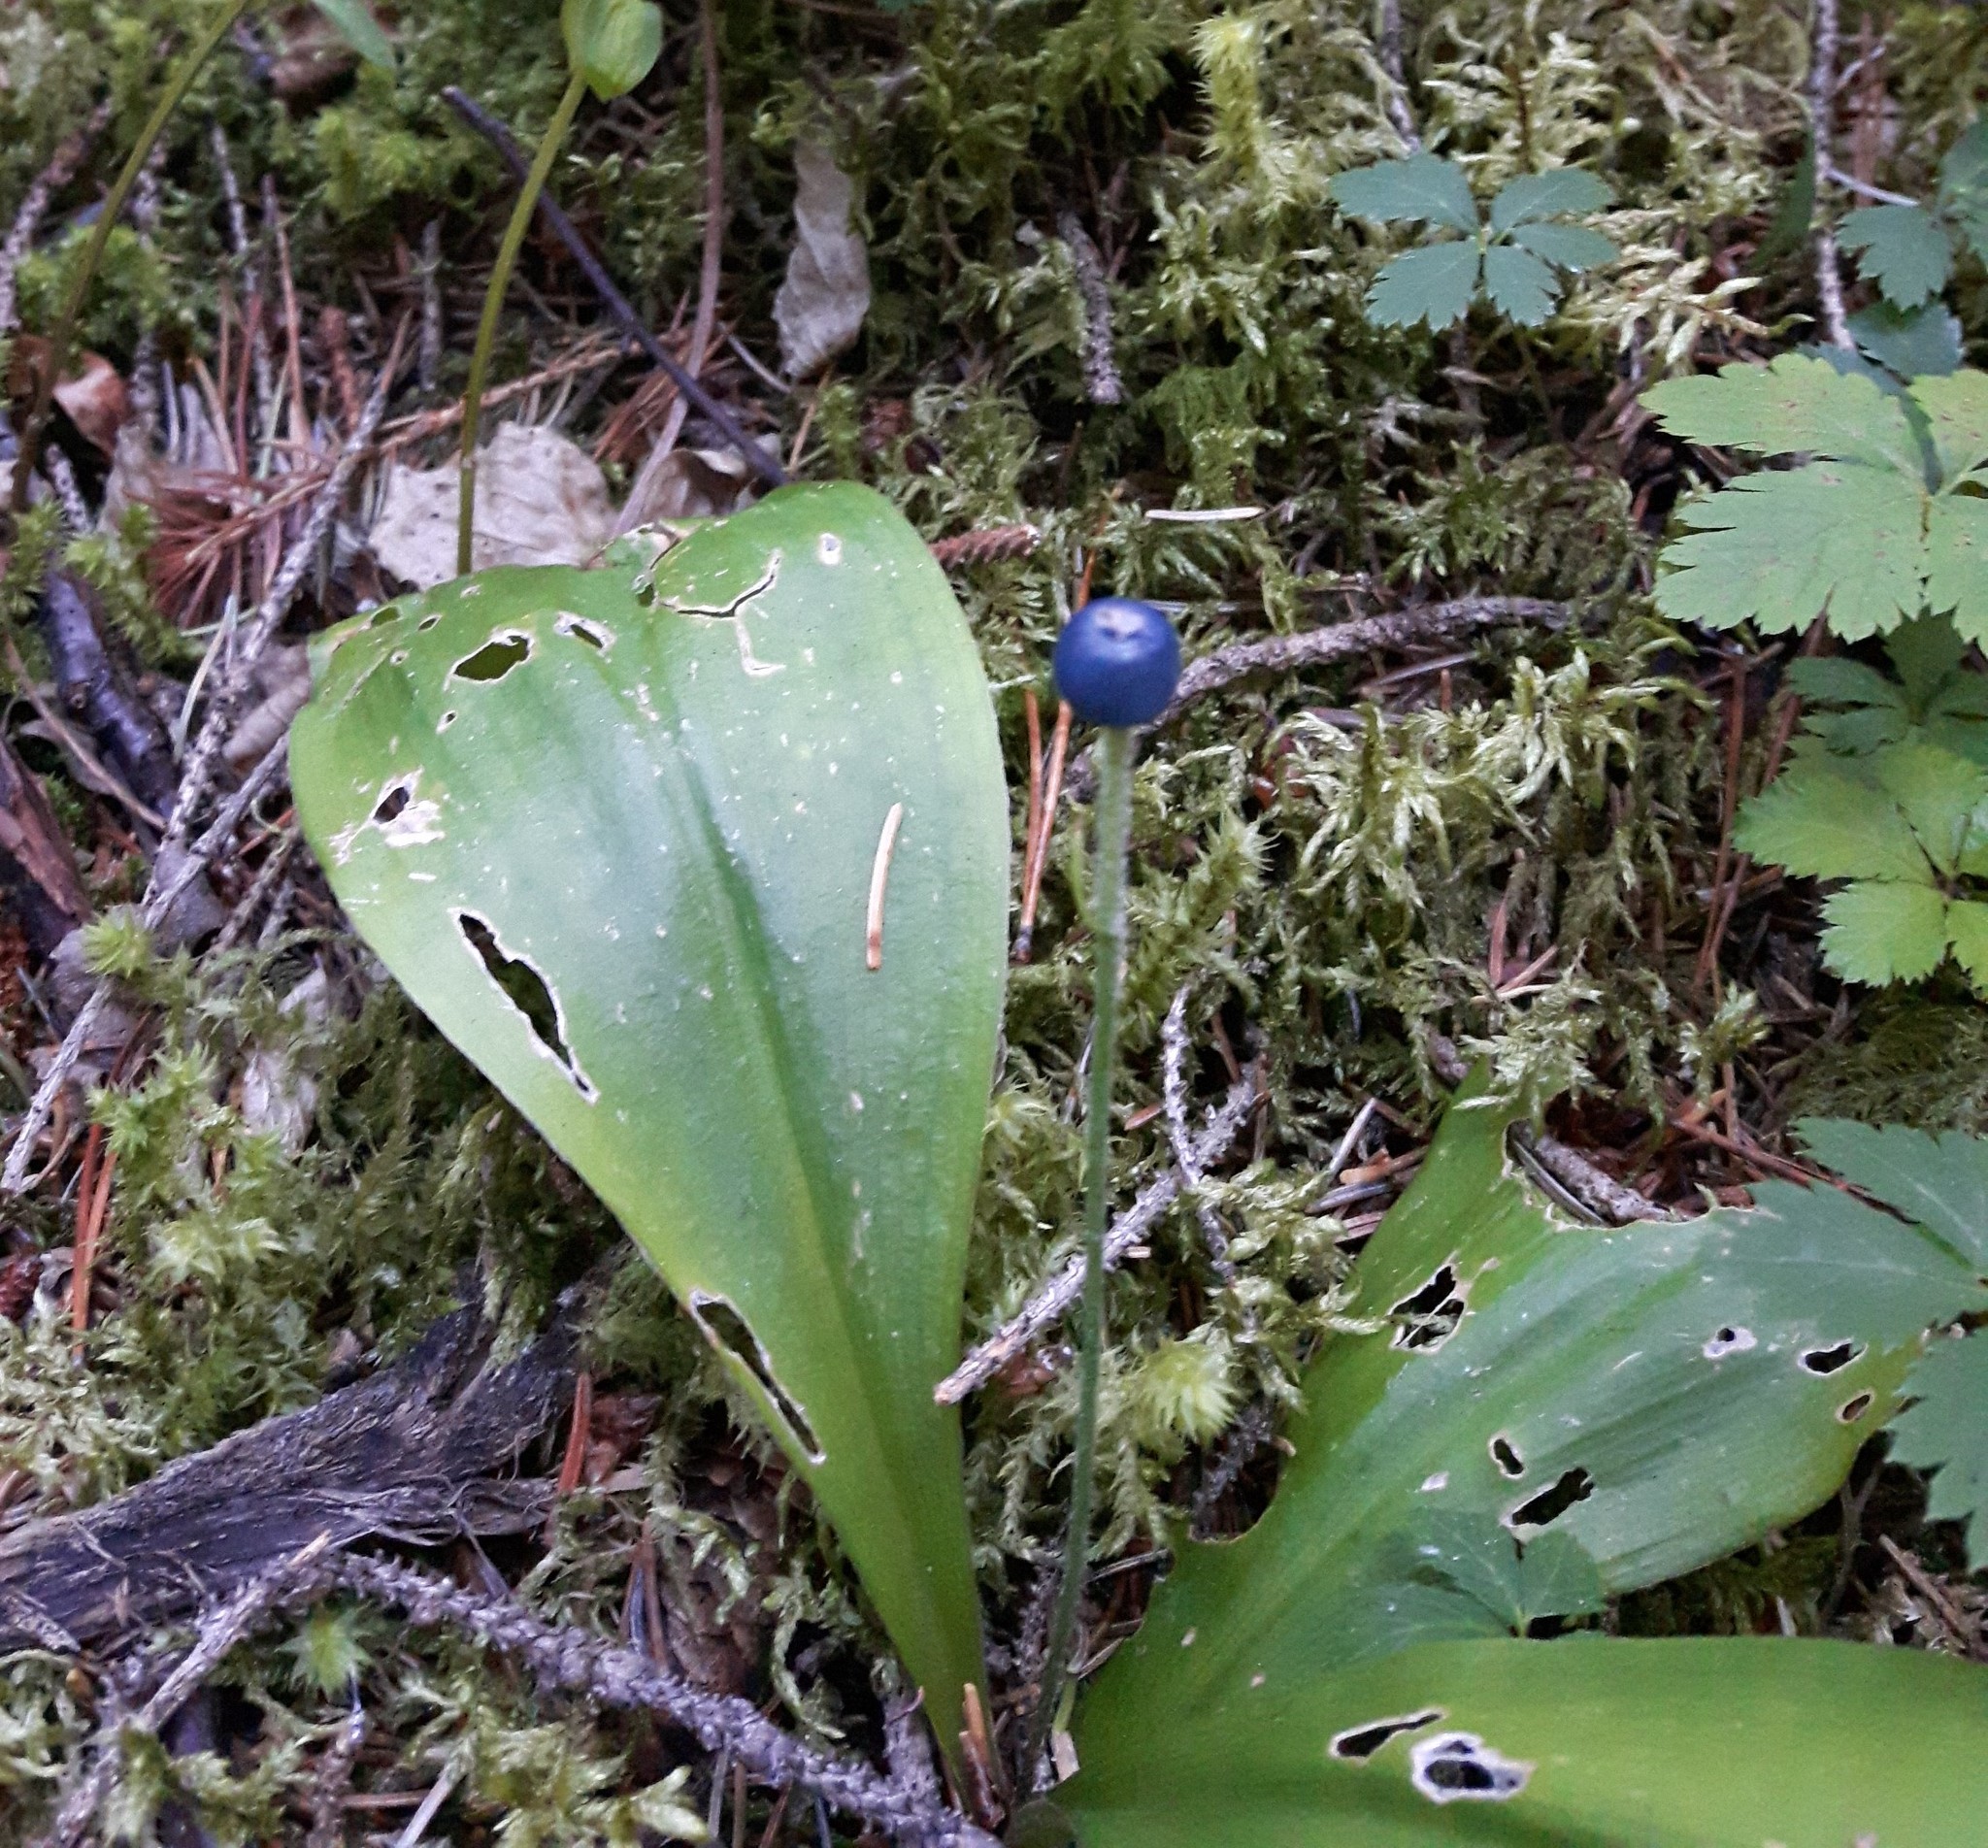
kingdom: Plantae
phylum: Tracheophyta
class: Liliopsida
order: Liliales
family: Liliaceae
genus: Clintonia
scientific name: Clintonia uniflora
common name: Queen's cup
